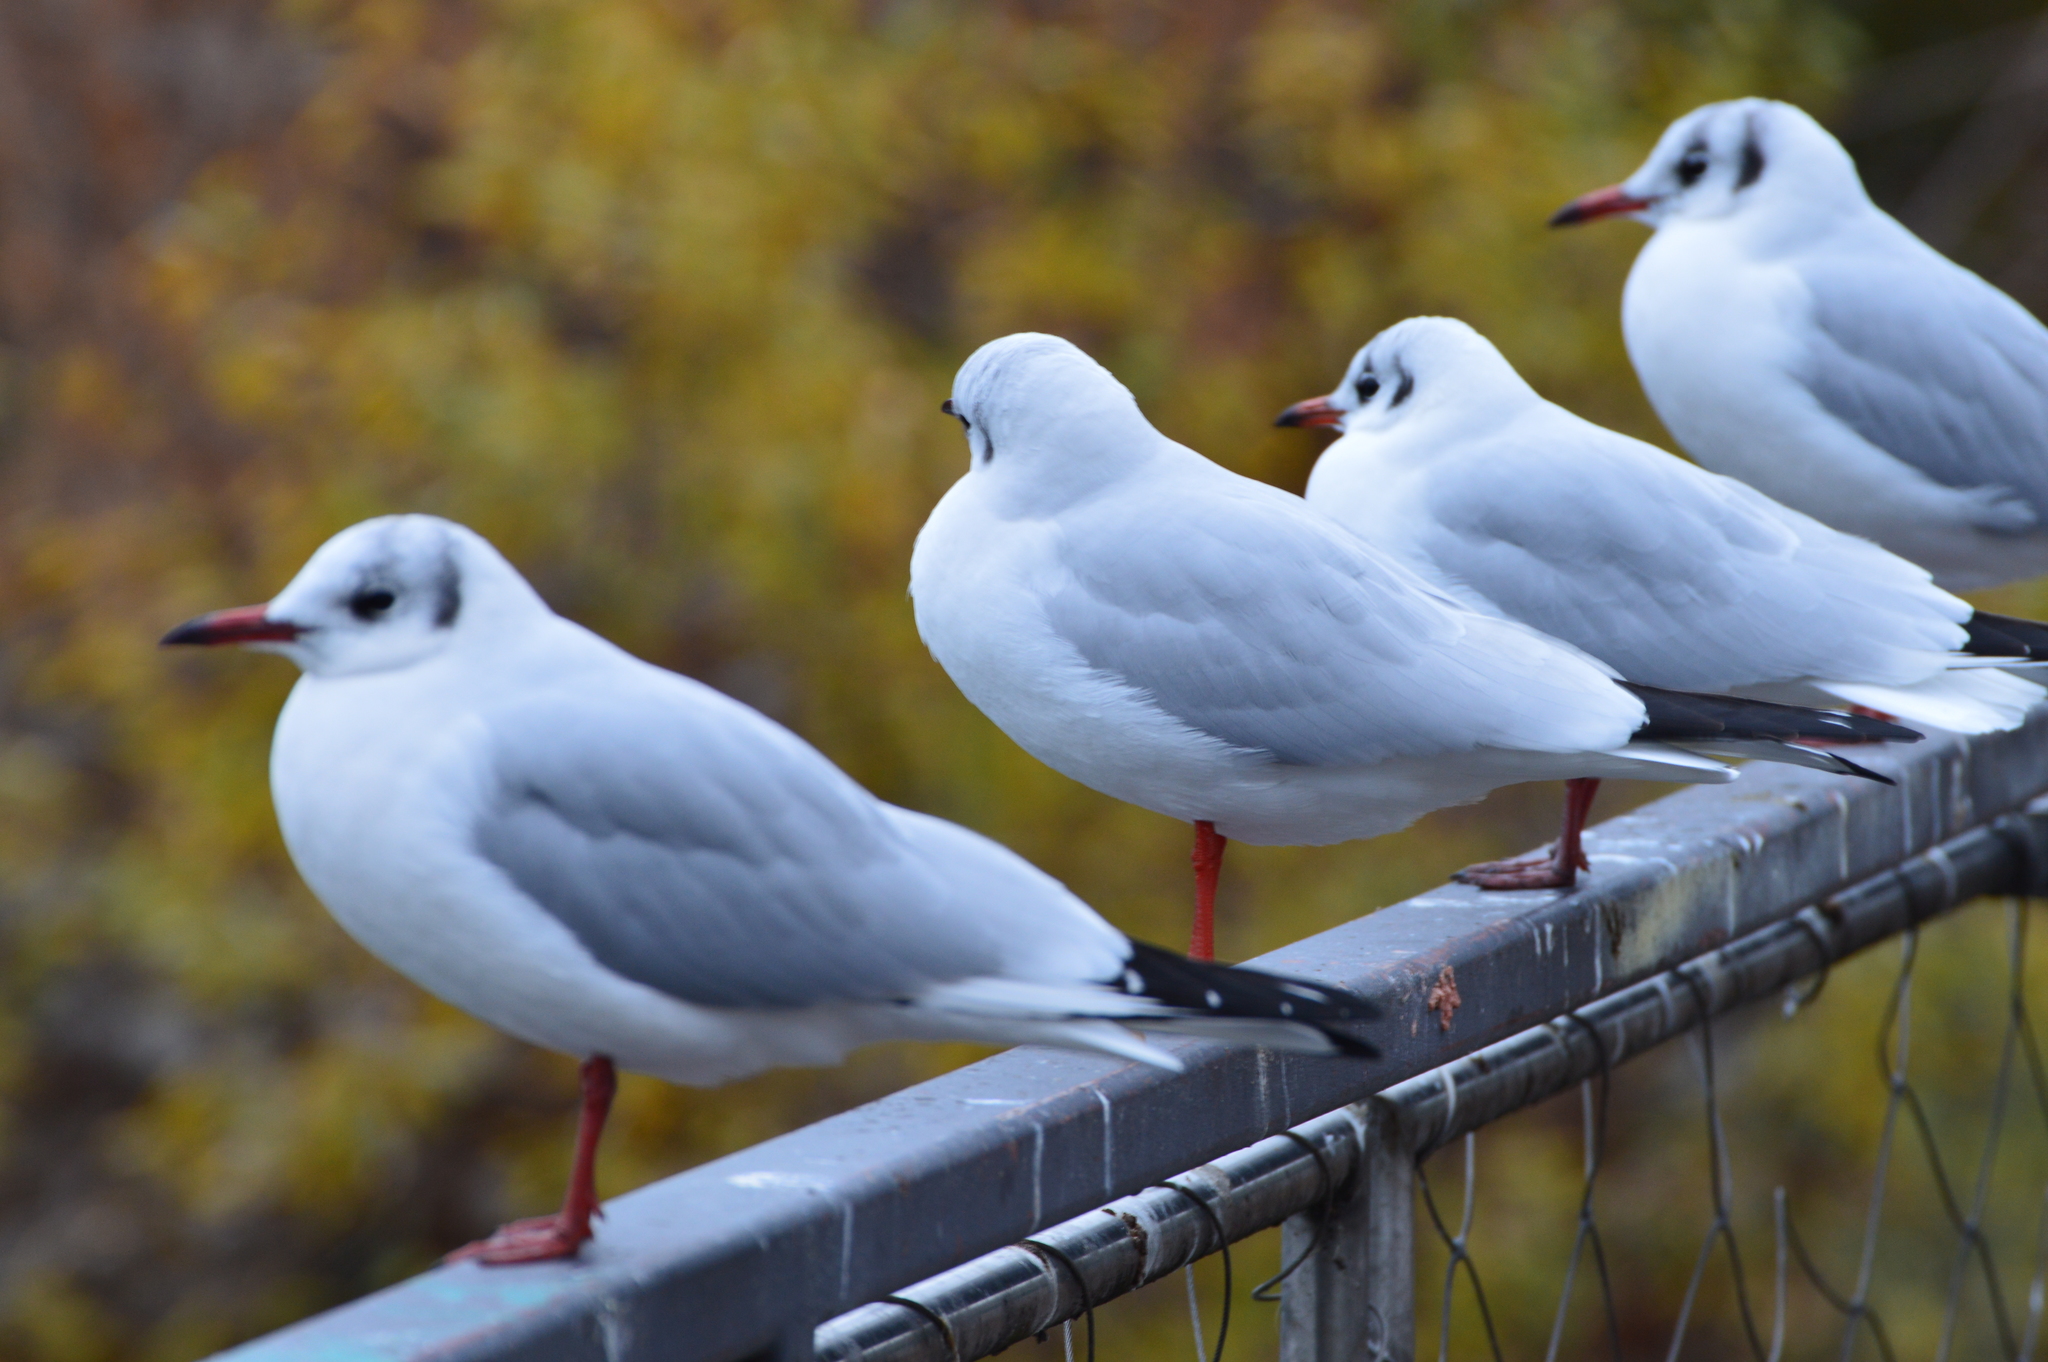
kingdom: Animalia
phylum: Chordata
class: Aves
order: Charadriiformes
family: Laridae
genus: Chroicocephalus
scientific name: Chroicocephalus ridibundus
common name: Black-headed gull
